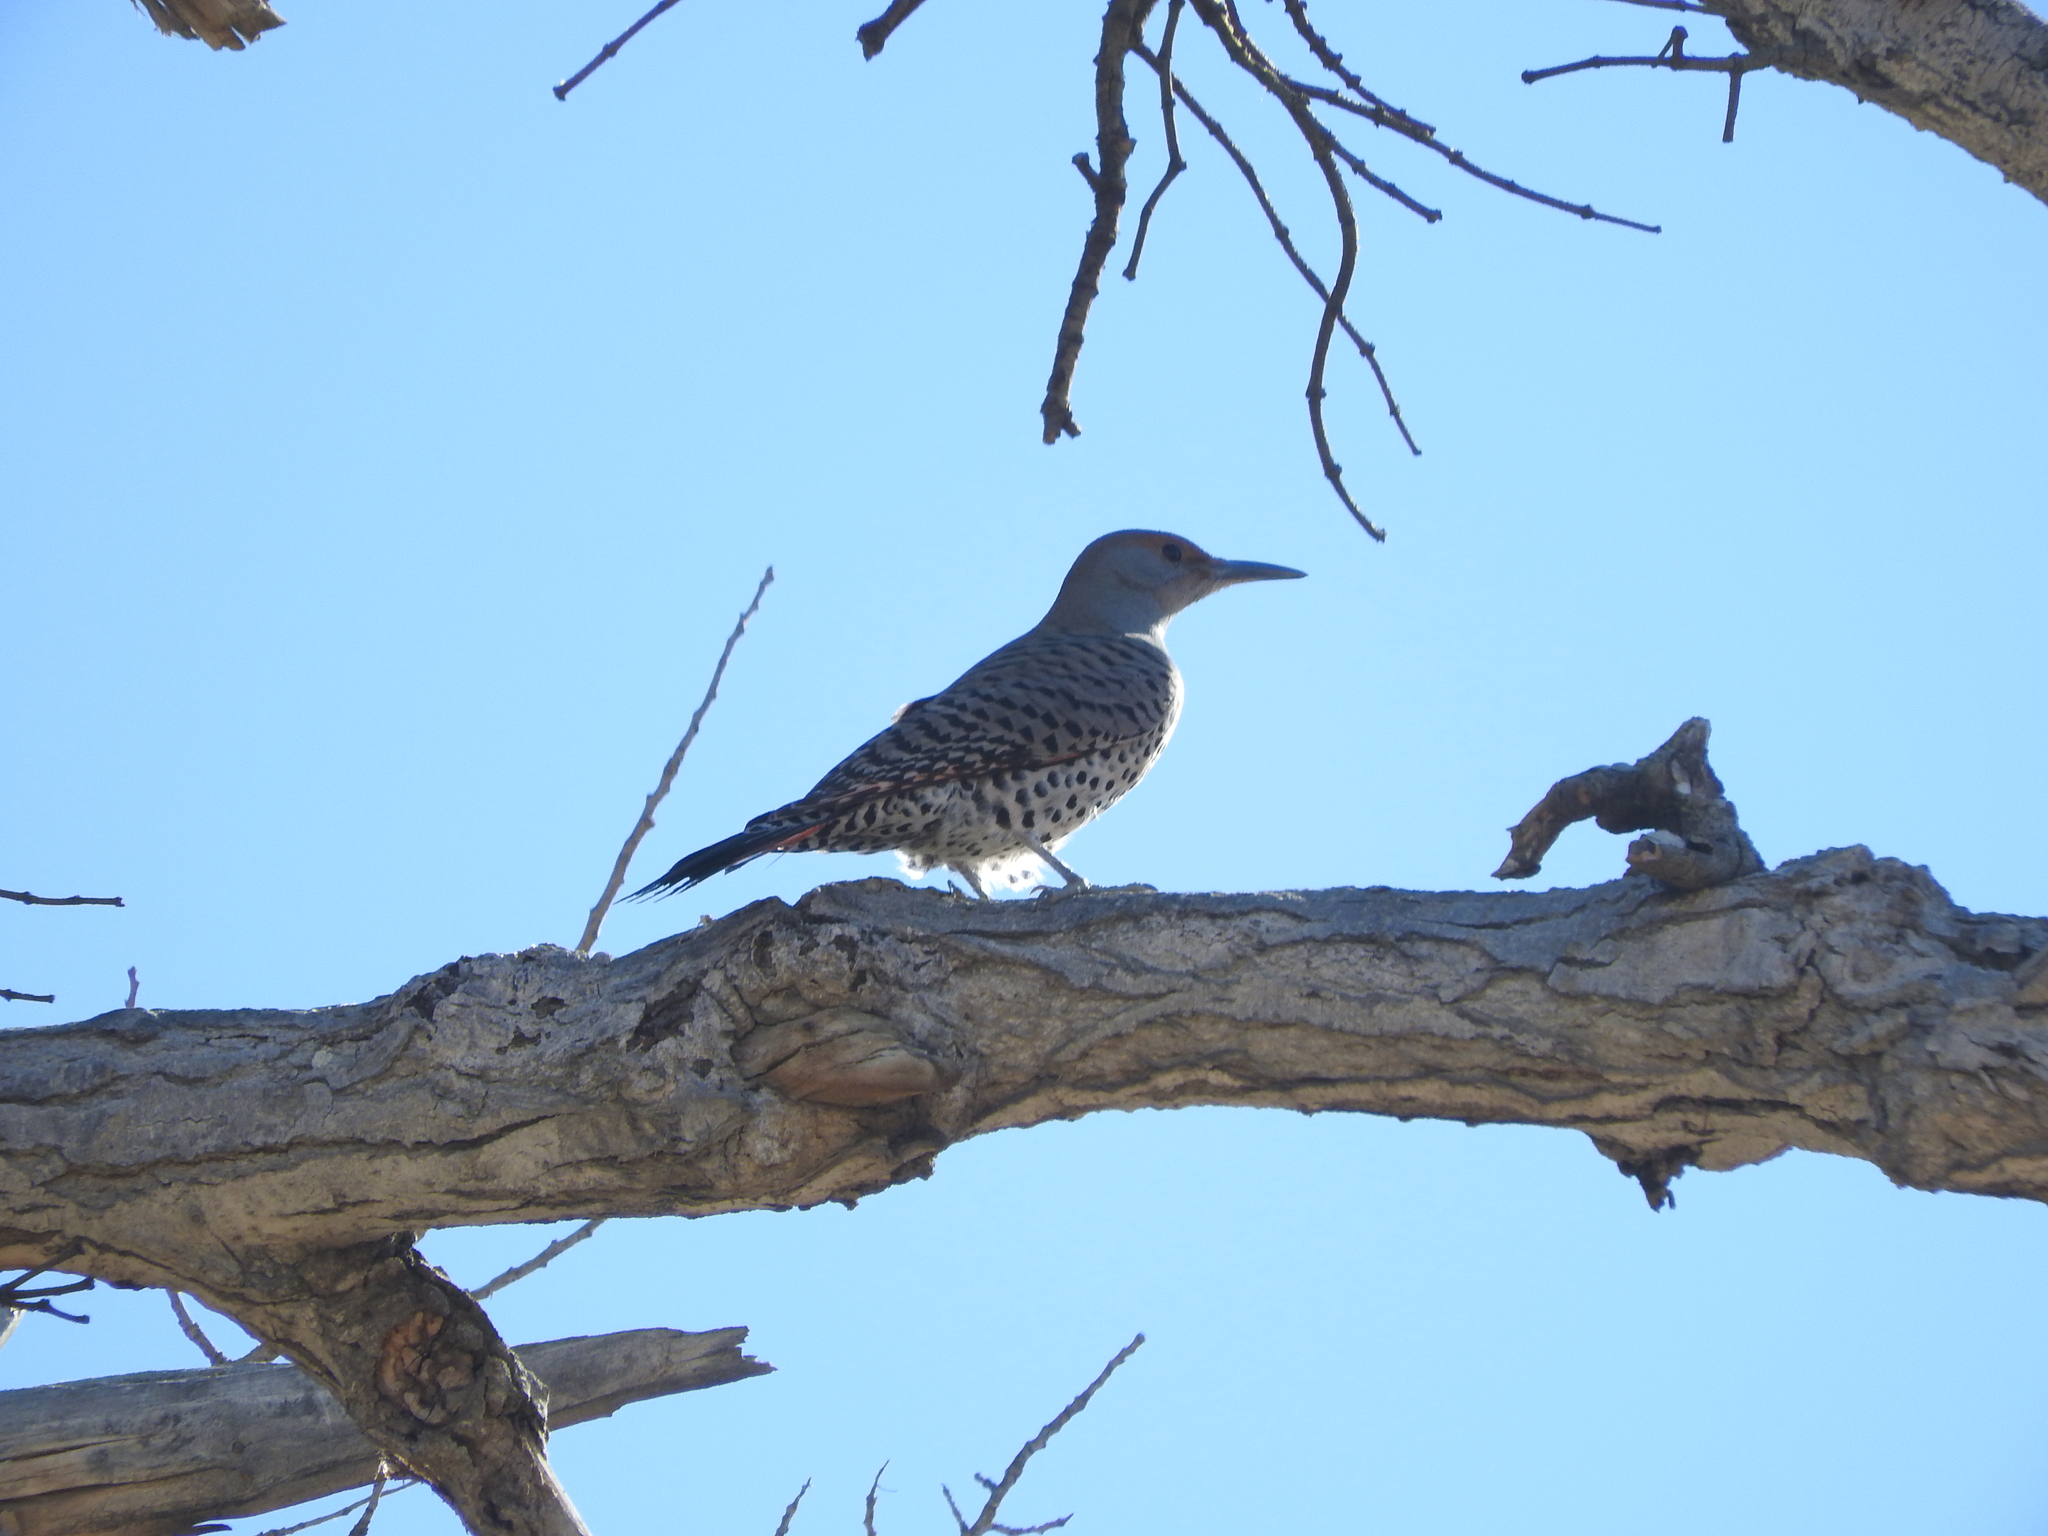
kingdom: Animalia
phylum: Chordata
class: Aves
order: Piciformes
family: Picidae
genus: Colaptes
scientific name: Colaptes auratus
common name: Northern flicker
